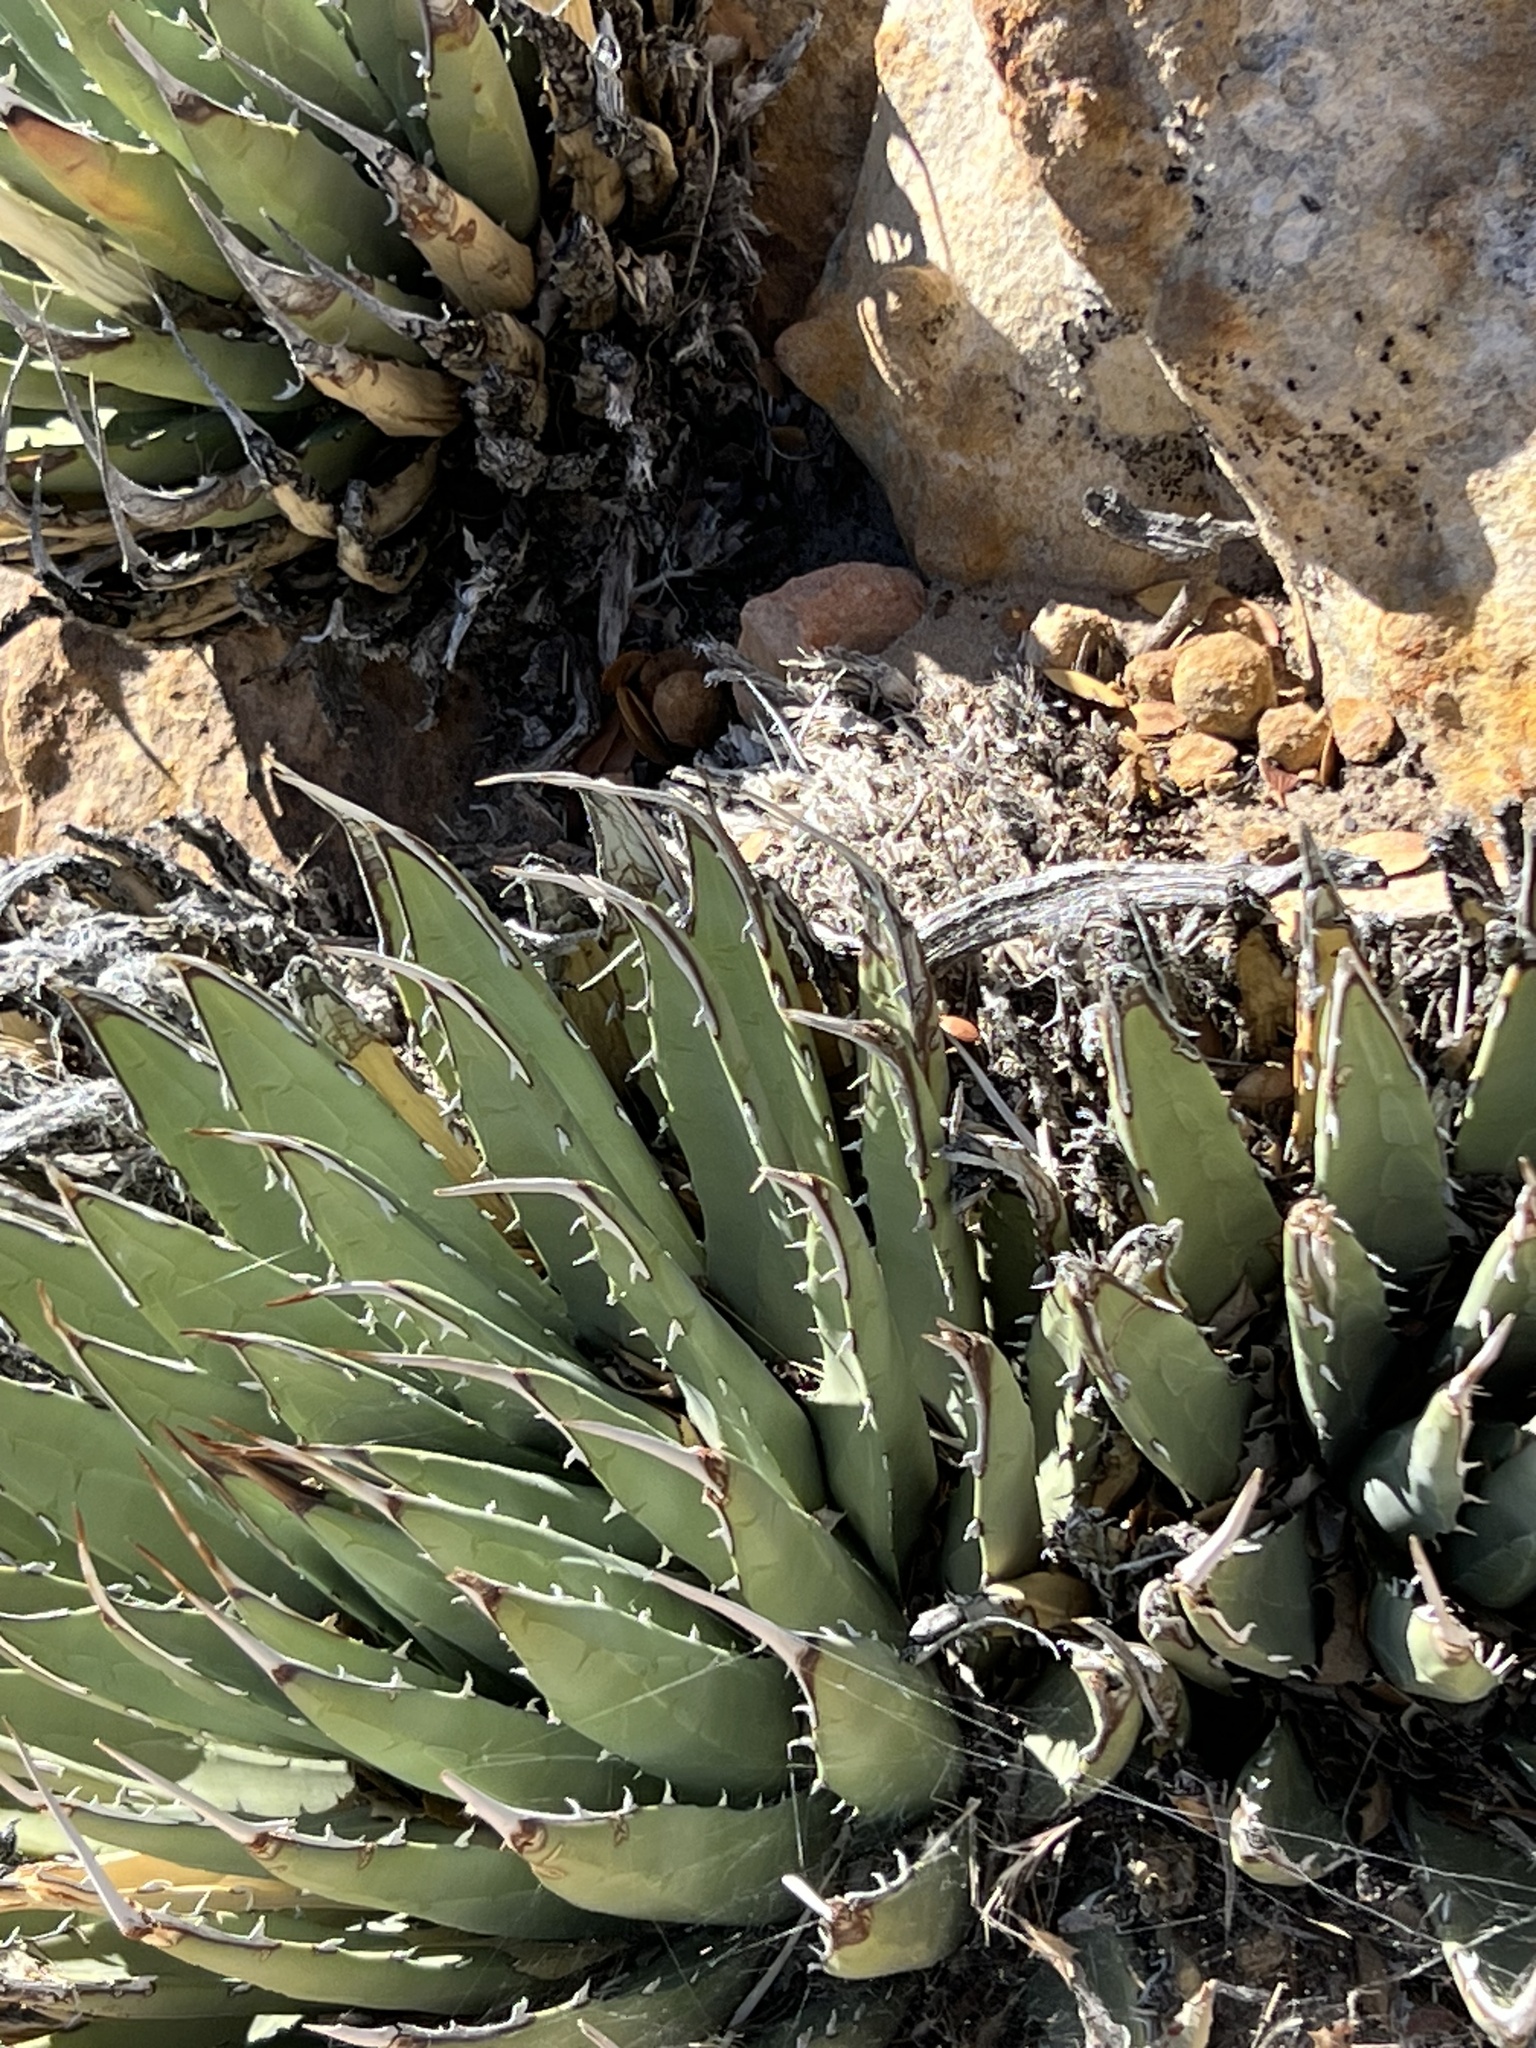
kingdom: Plantae
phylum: Tracheophyta
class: Liliopsida
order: Asparagales
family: Asparagaceae
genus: Agave
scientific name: Agave utahensis
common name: Utah agave
